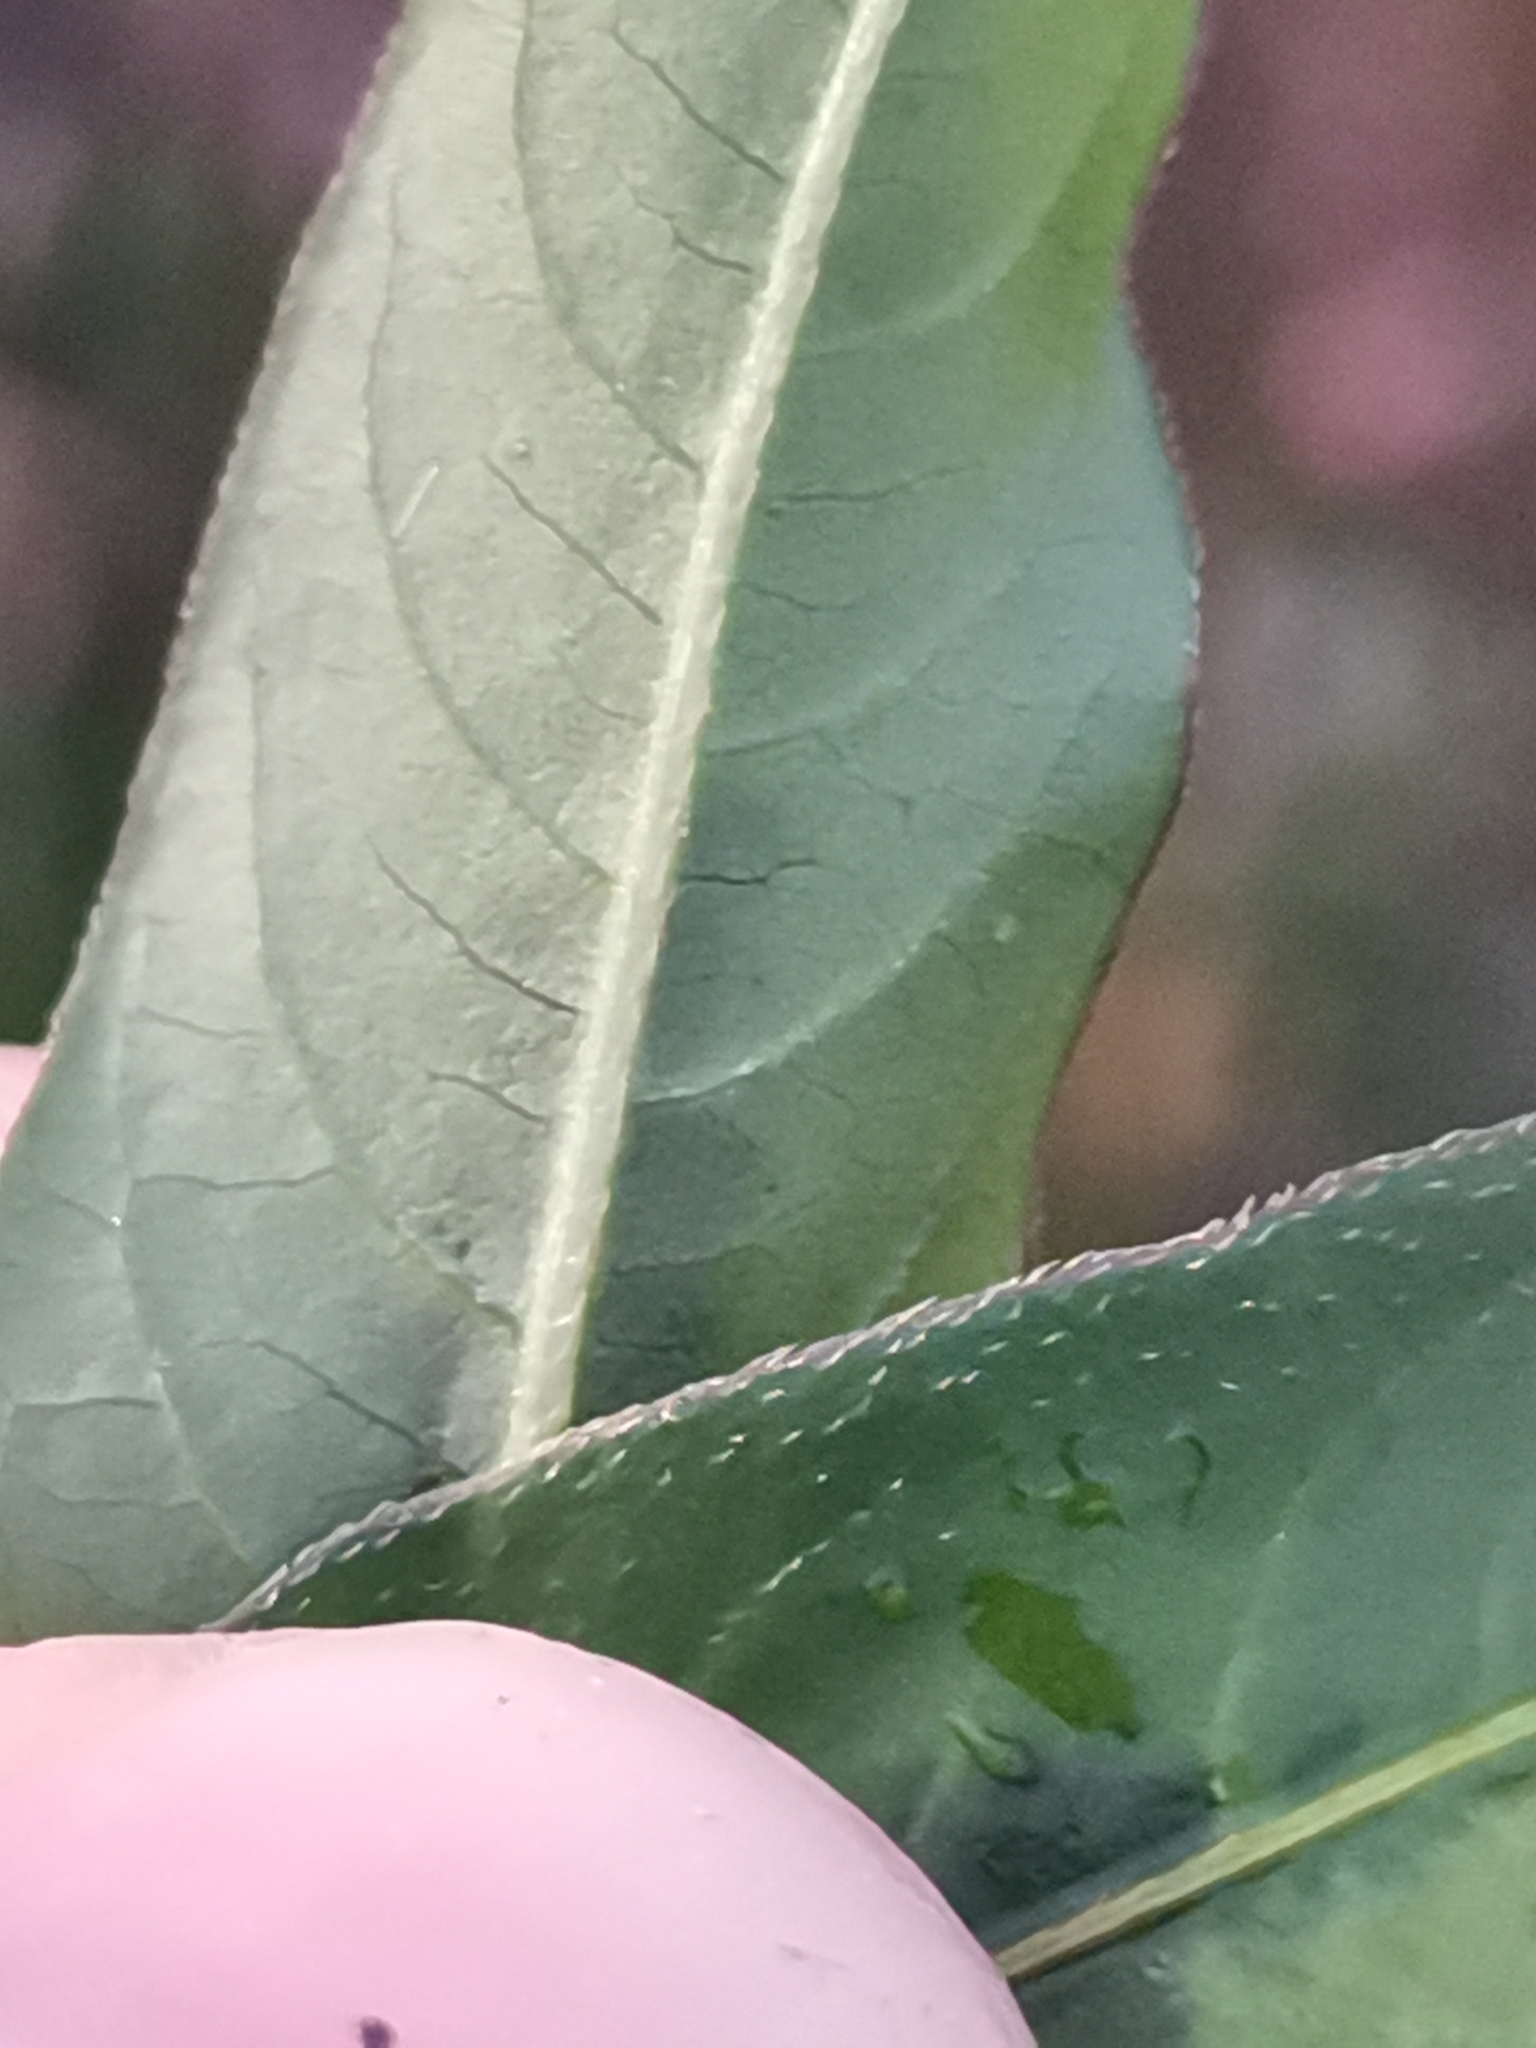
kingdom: Plantae
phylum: Tracheophyta
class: Magnoliopsida
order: Caryophyllales
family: Polygonaceae
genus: Persicaria
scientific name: Persicaria maculosa
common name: Redshank
